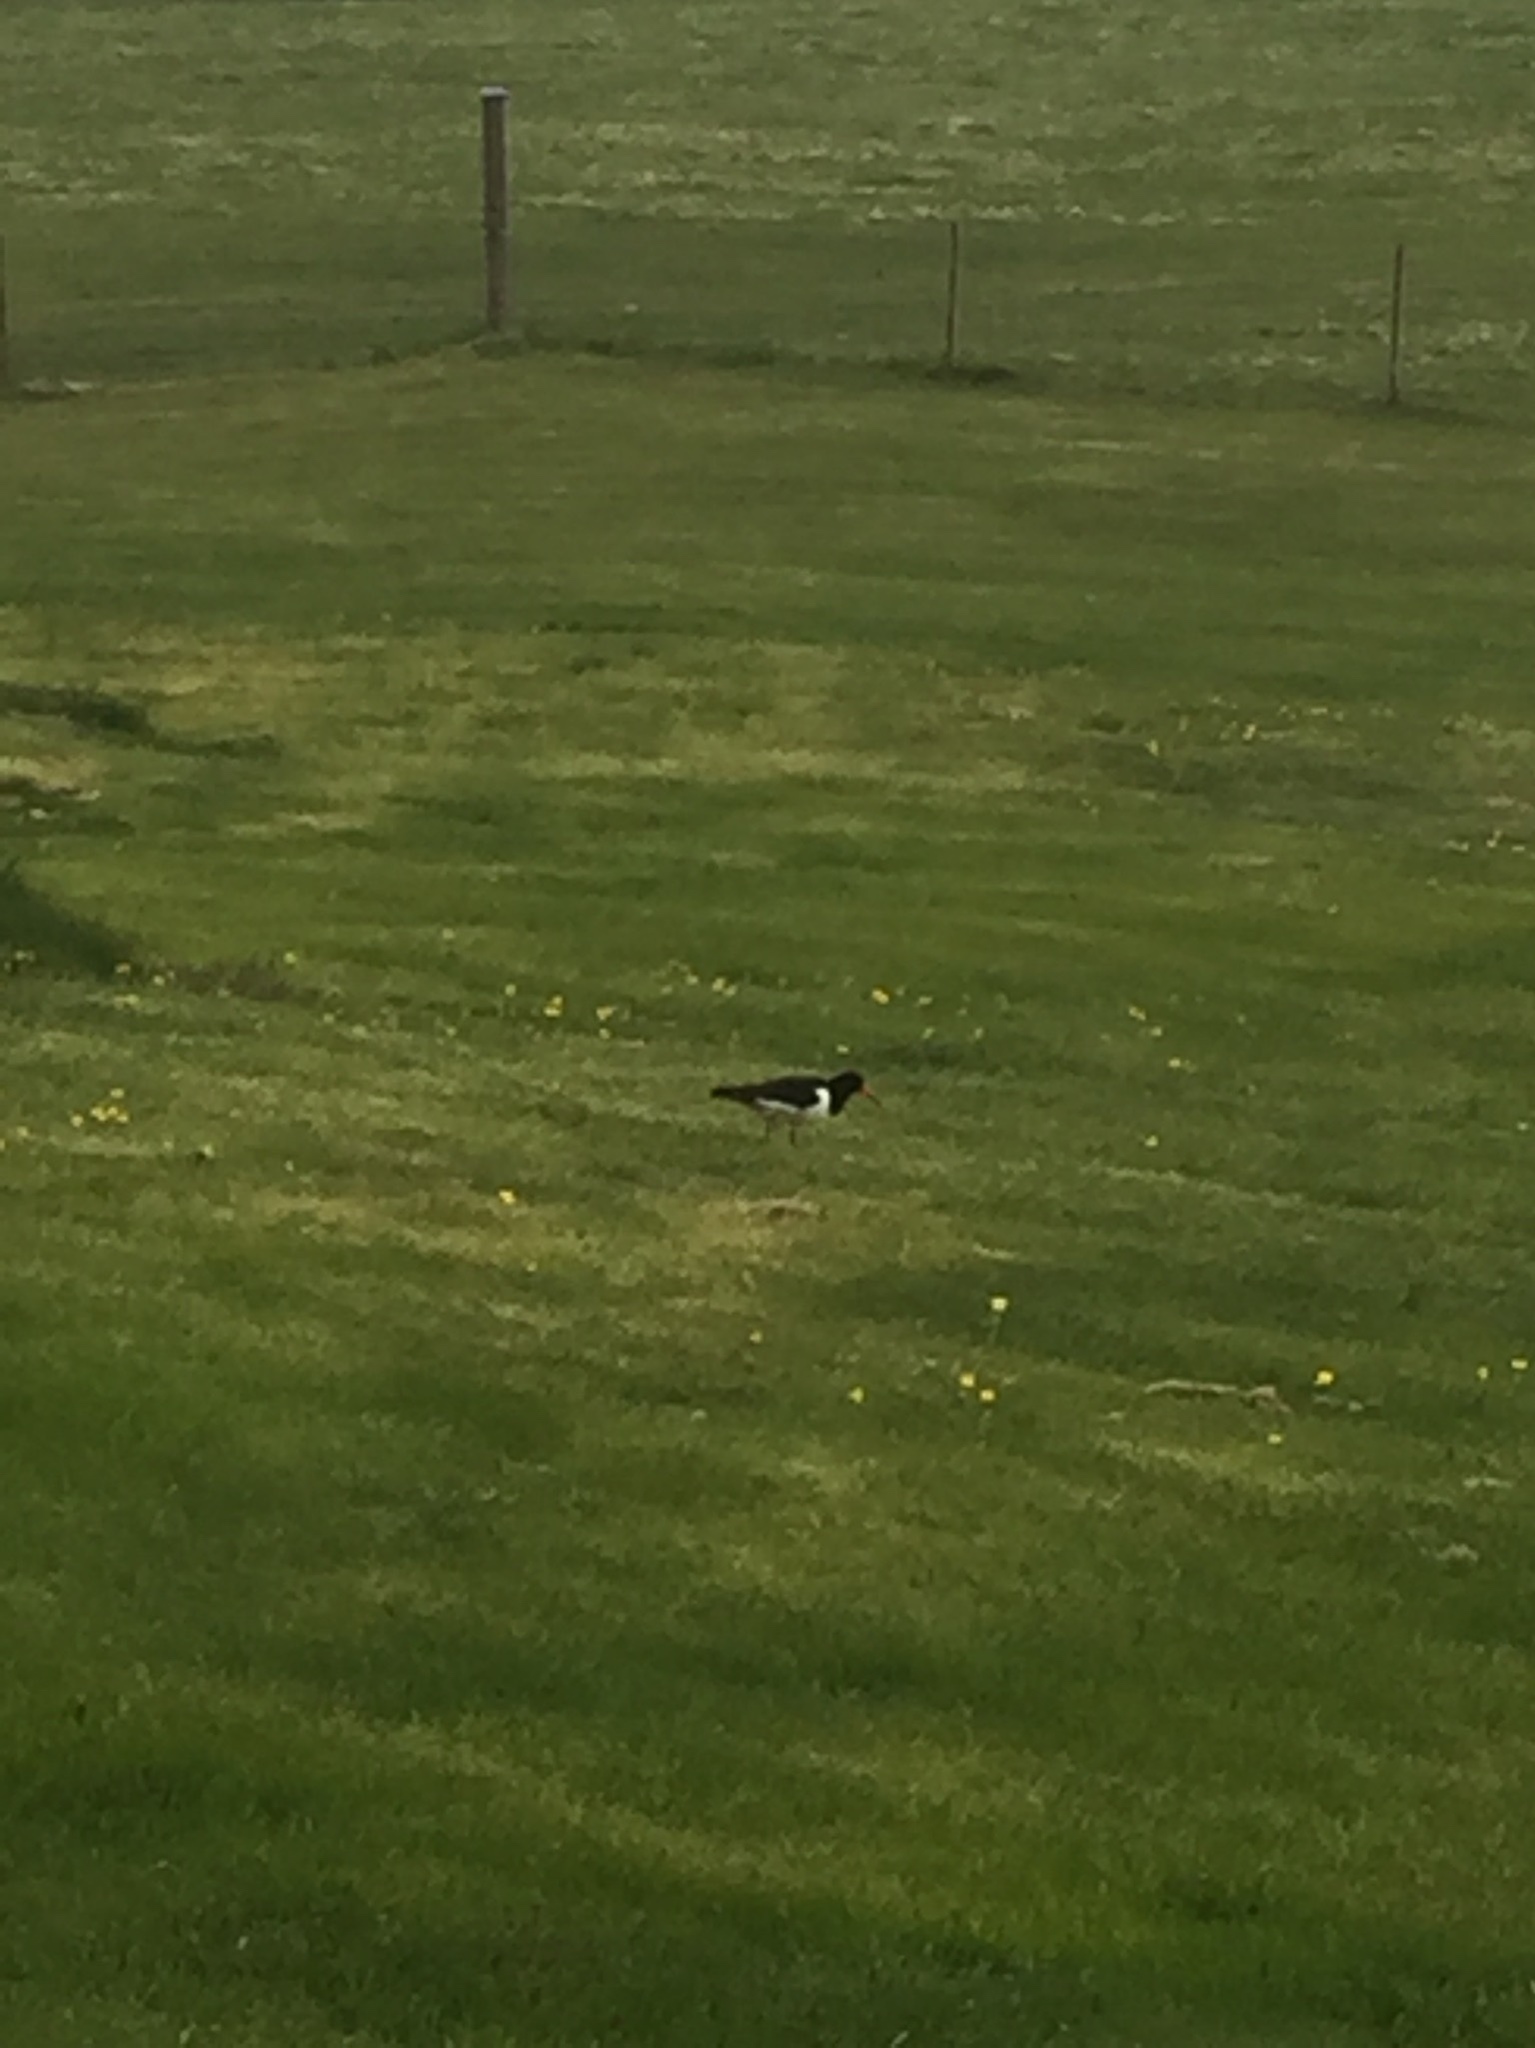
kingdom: Animalia
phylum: Chordata
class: Aves
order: Charadriiformes
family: Haematopodidae
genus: Haematopus
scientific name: Haematopus ostralegus
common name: Eurasian oystercatcher
